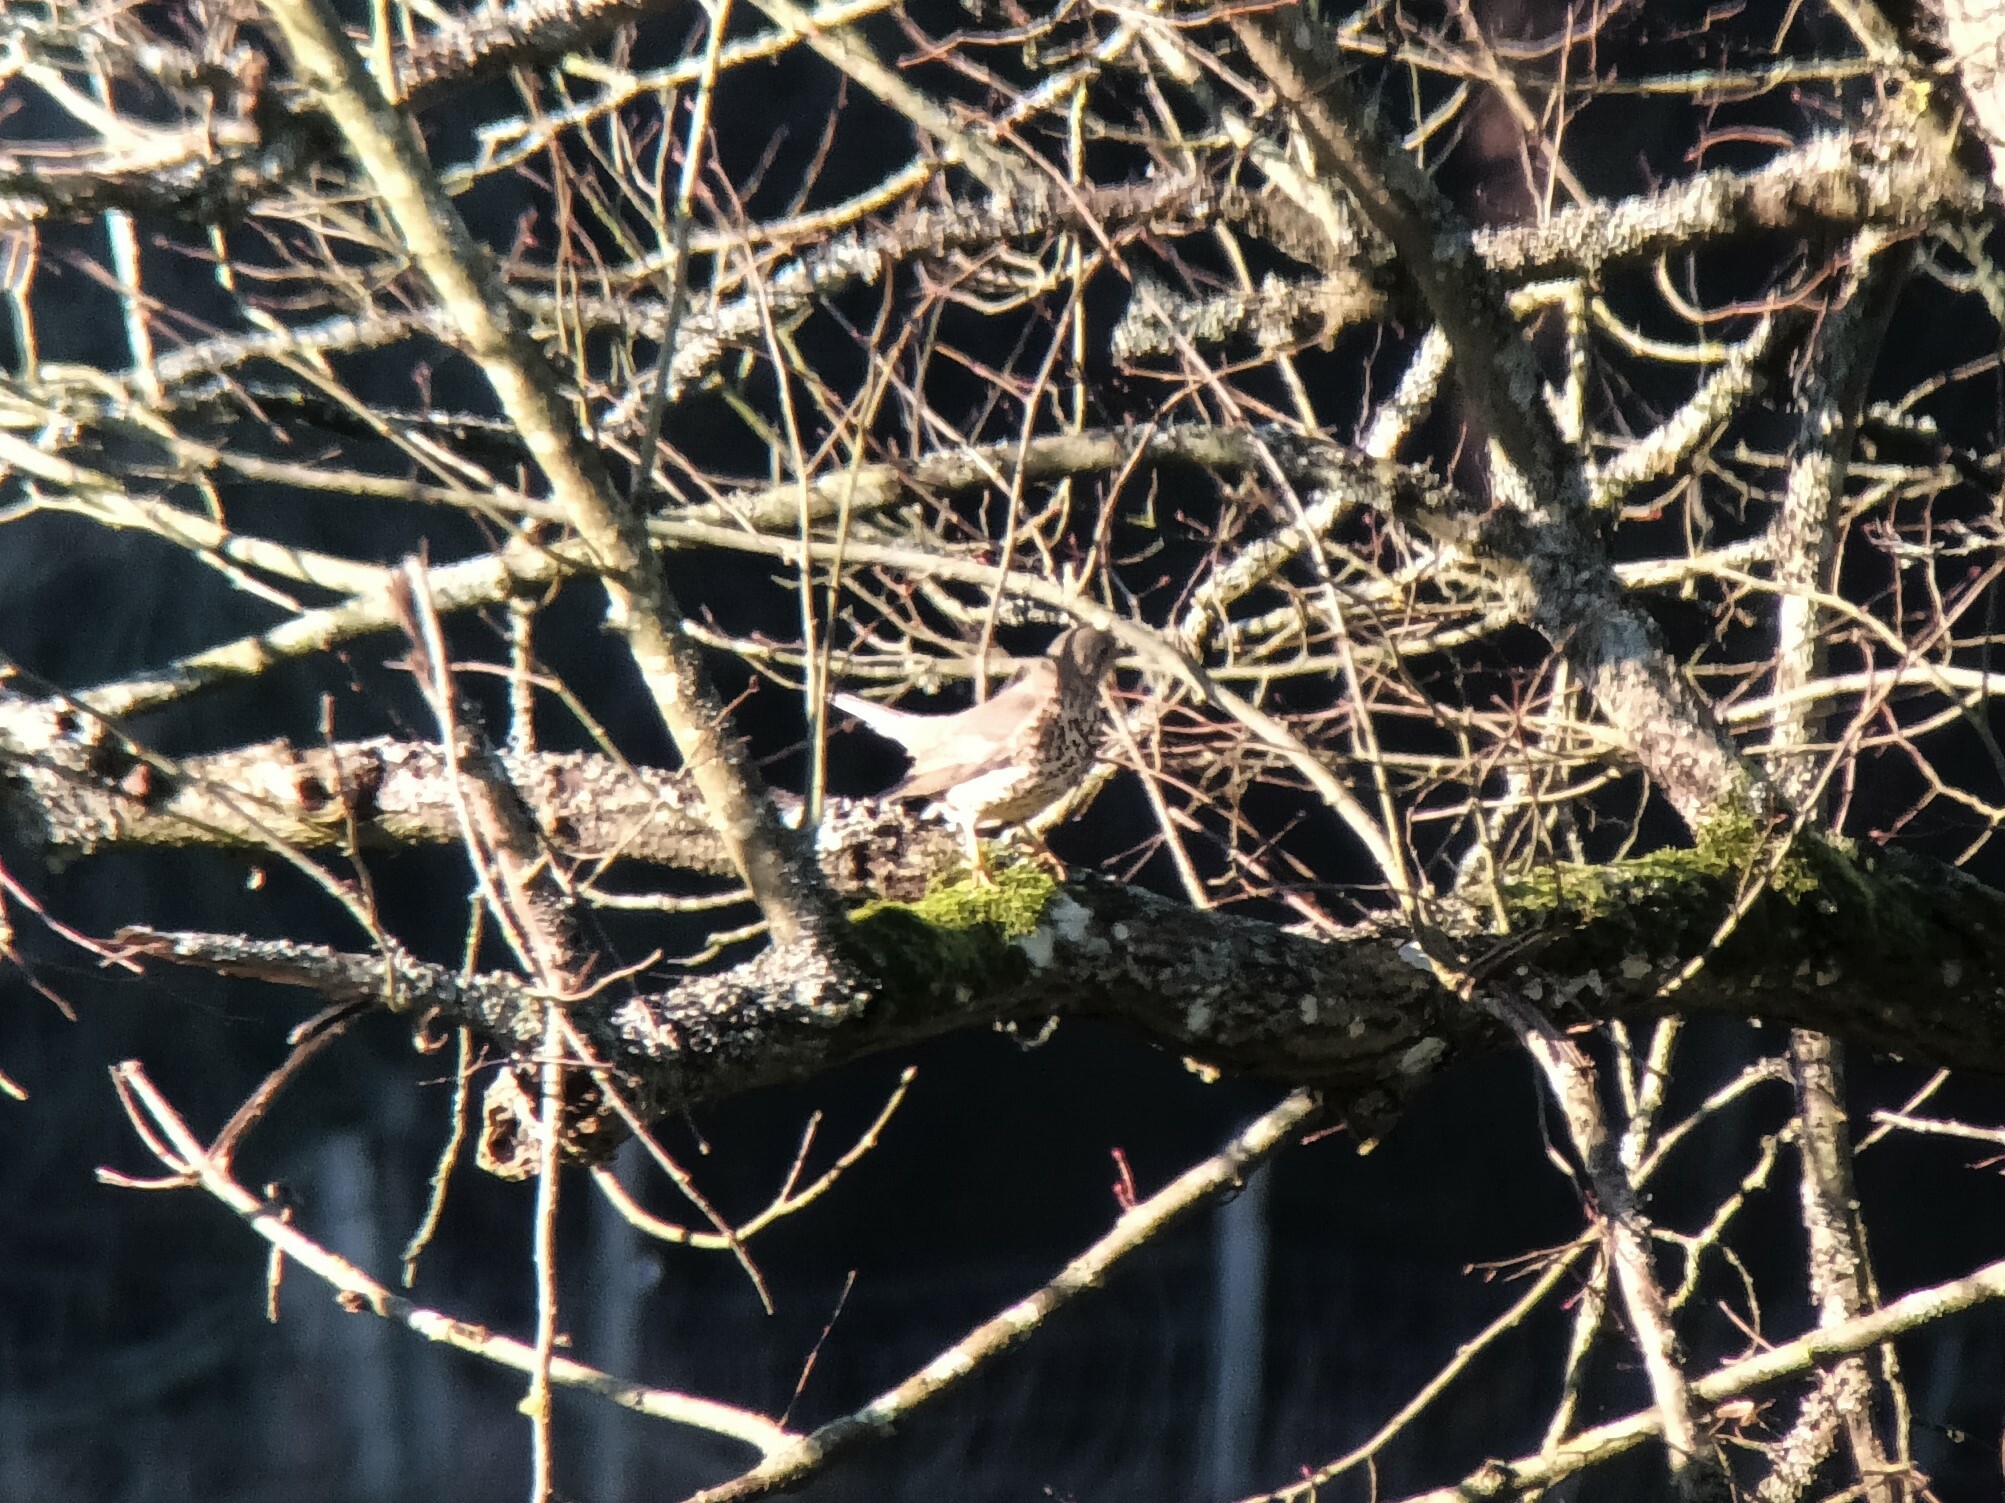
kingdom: Animalia
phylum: Chordata
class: Aves
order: Passeriformes
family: Turdidae
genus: Turdus
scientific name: Turdus viscivorus
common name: Mistle thrush
